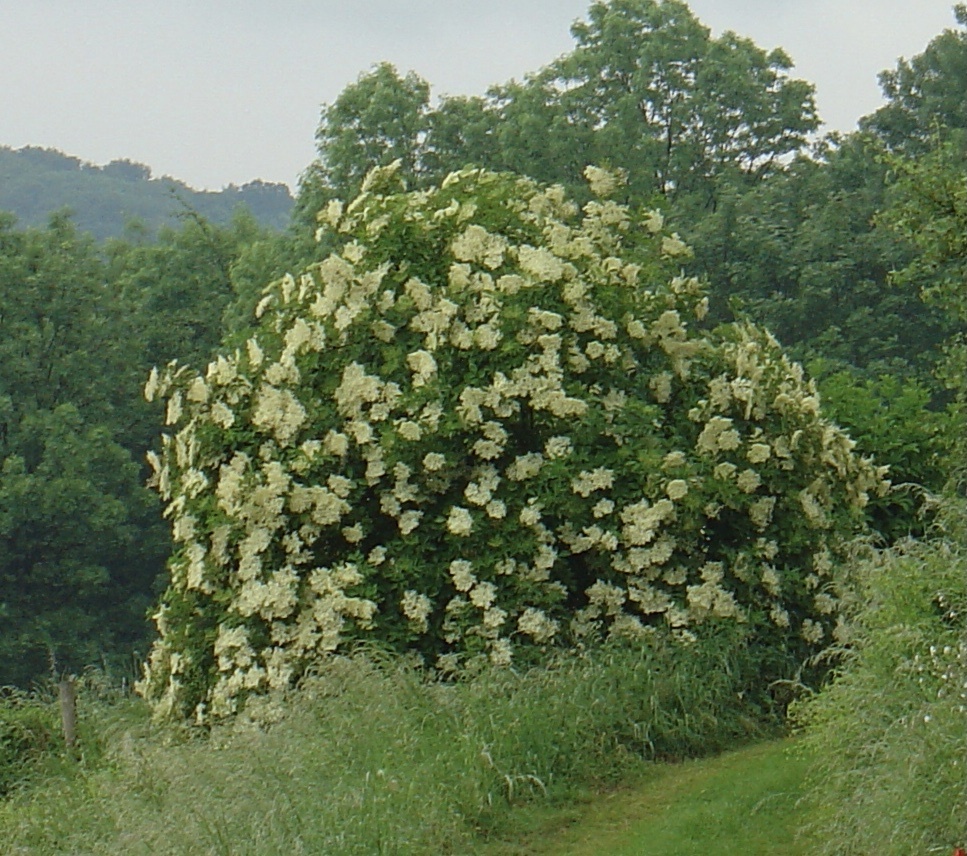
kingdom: Plantae
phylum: Tracheophyta
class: Magnoliopsida
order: Dipsacales
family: Viburnaceae
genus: Sambucus
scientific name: Sambucus nigra
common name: Elder
